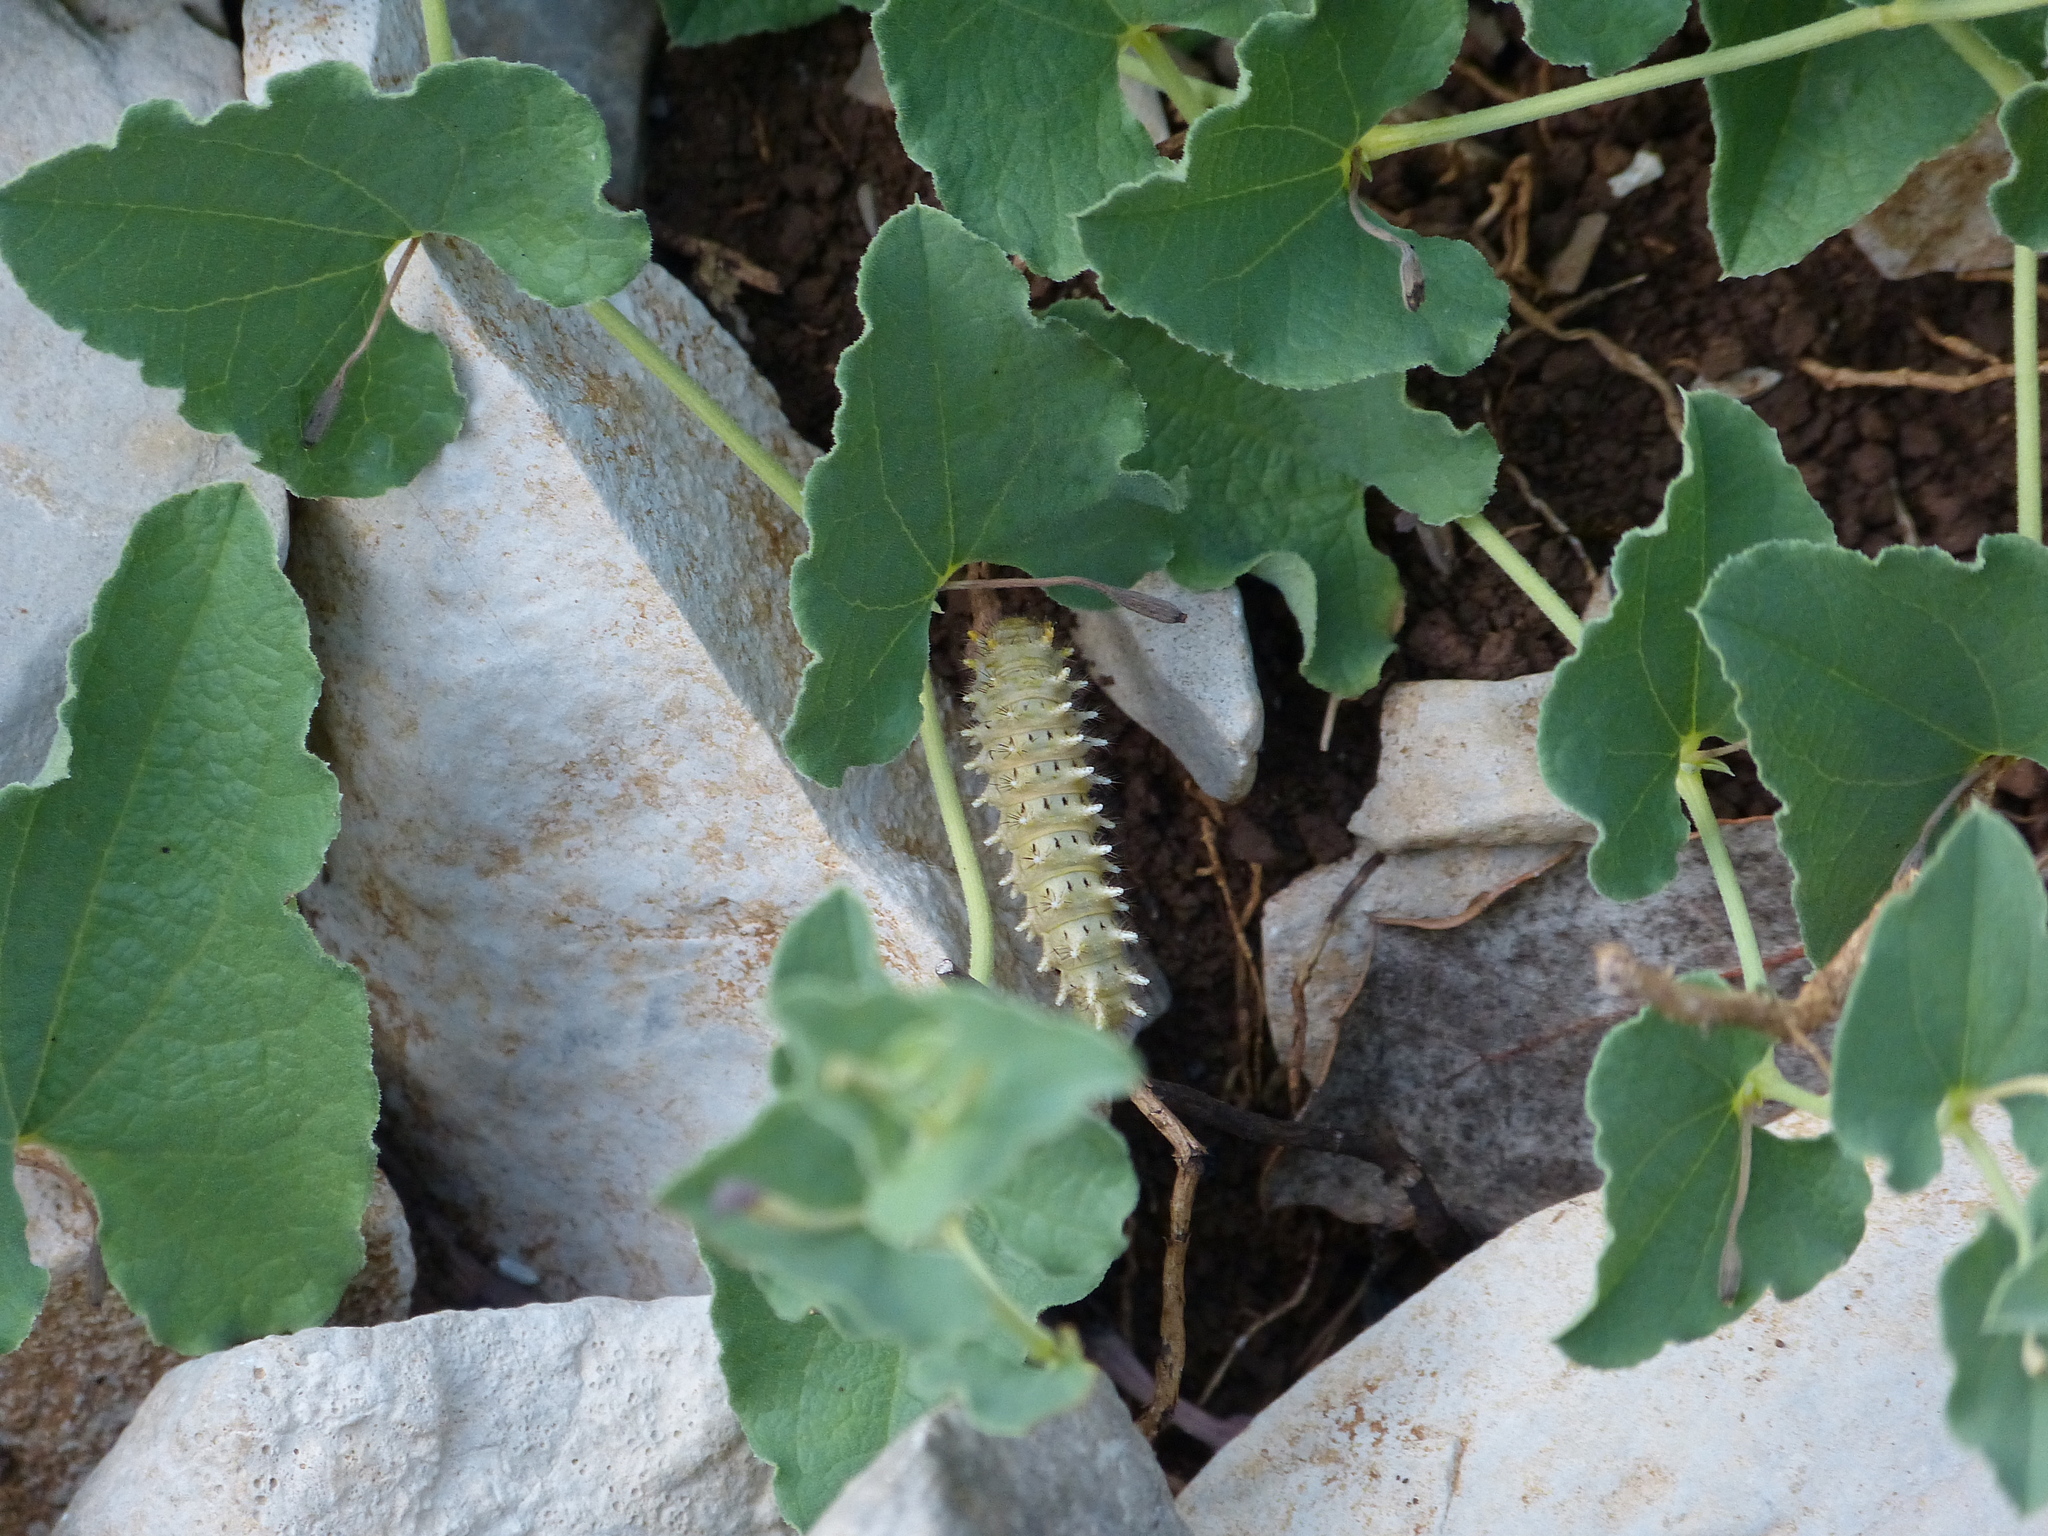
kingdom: Animalia
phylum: Arthropoda
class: Insecta
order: Lepidoptera
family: Papilionidae
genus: Zerynthia
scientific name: Zerynthia rumina
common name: Spanish festoon
